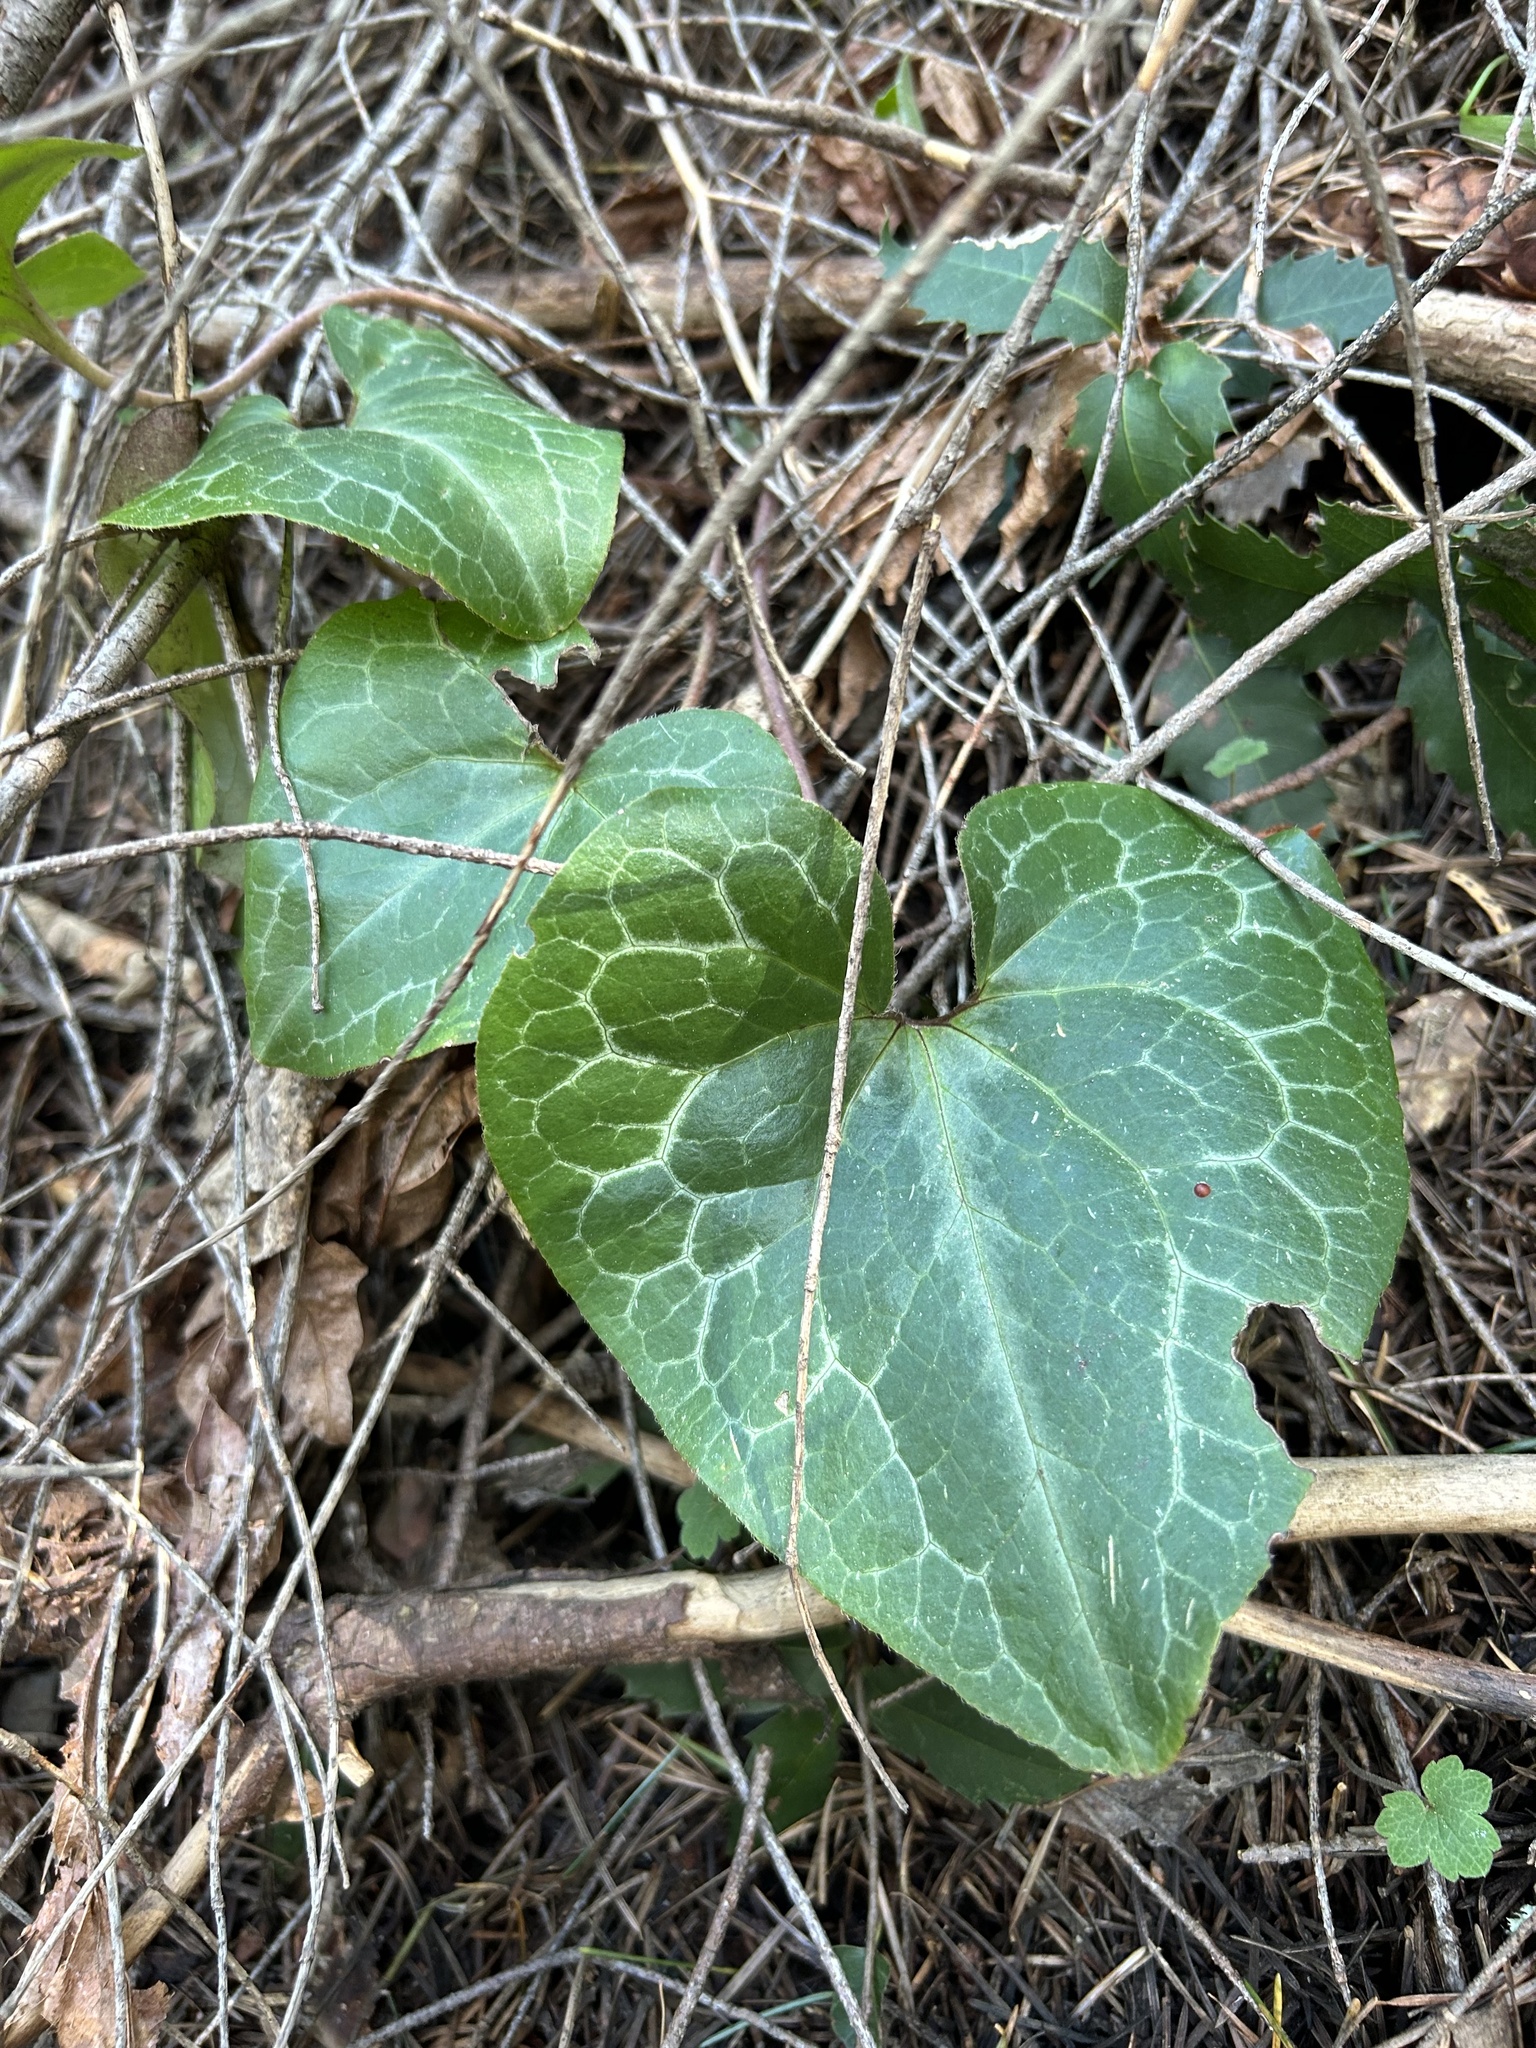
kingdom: Plantae
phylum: Tracheophyta
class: Magnoliopsida
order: Piperales
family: Aristolochiaceae
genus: Asarum
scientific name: Asarum hartwegii
